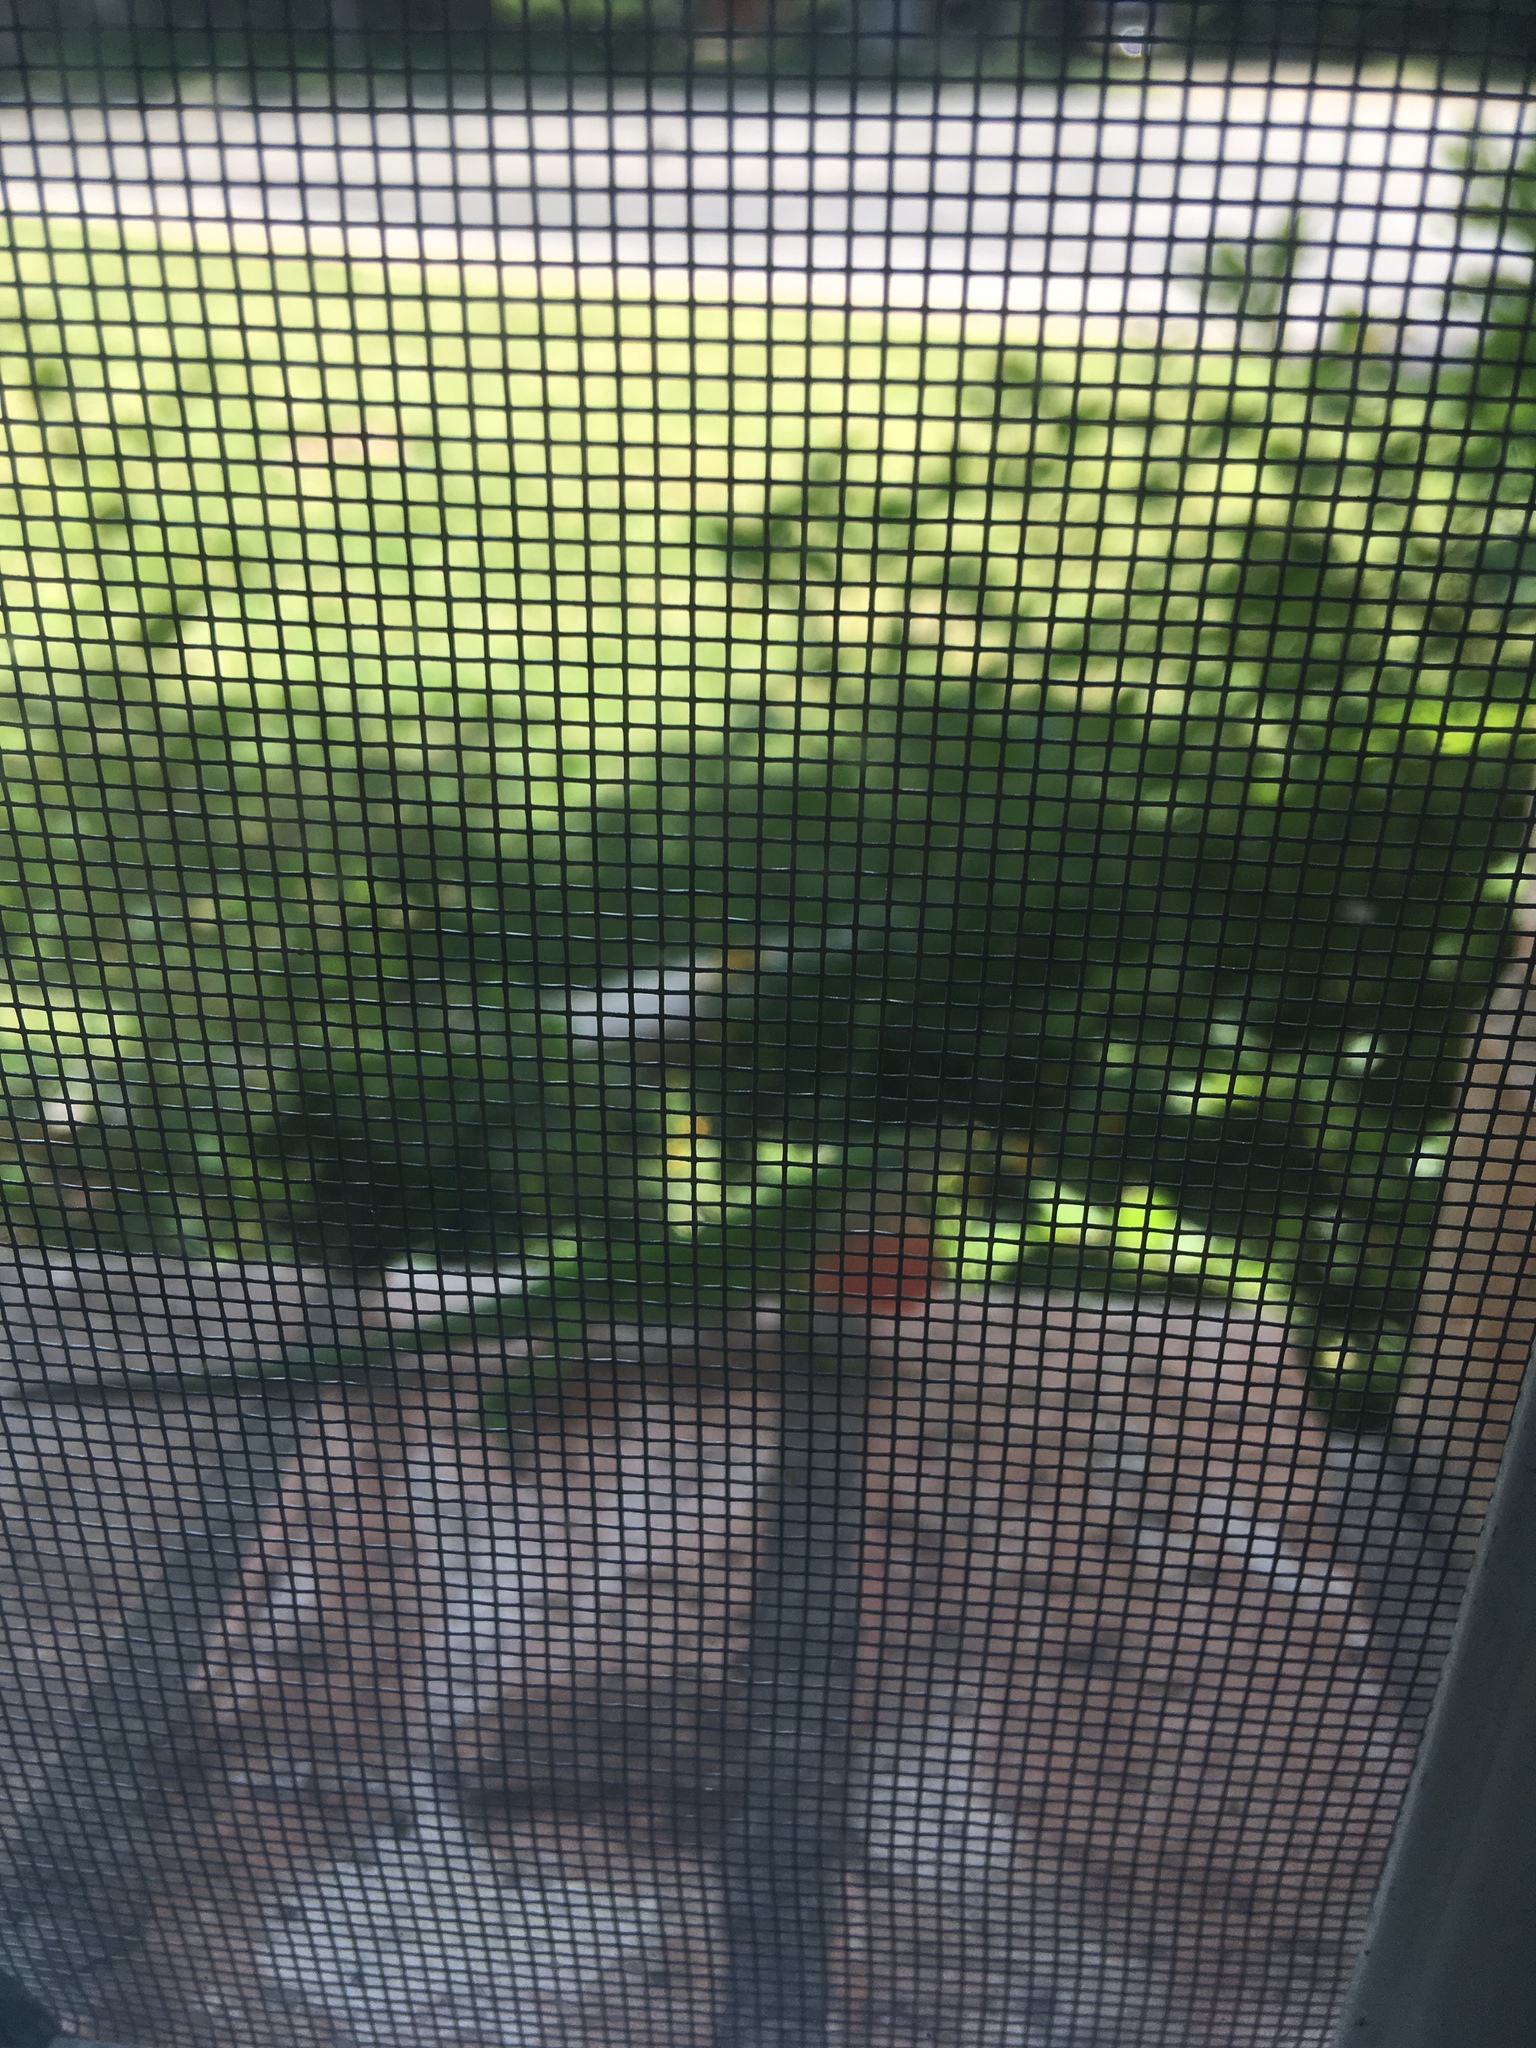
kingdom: Animalia
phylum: Chordata
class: Squamata
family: Dactyloidae
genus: Anolis
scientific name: Anolis carolinensis
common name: Green anole
